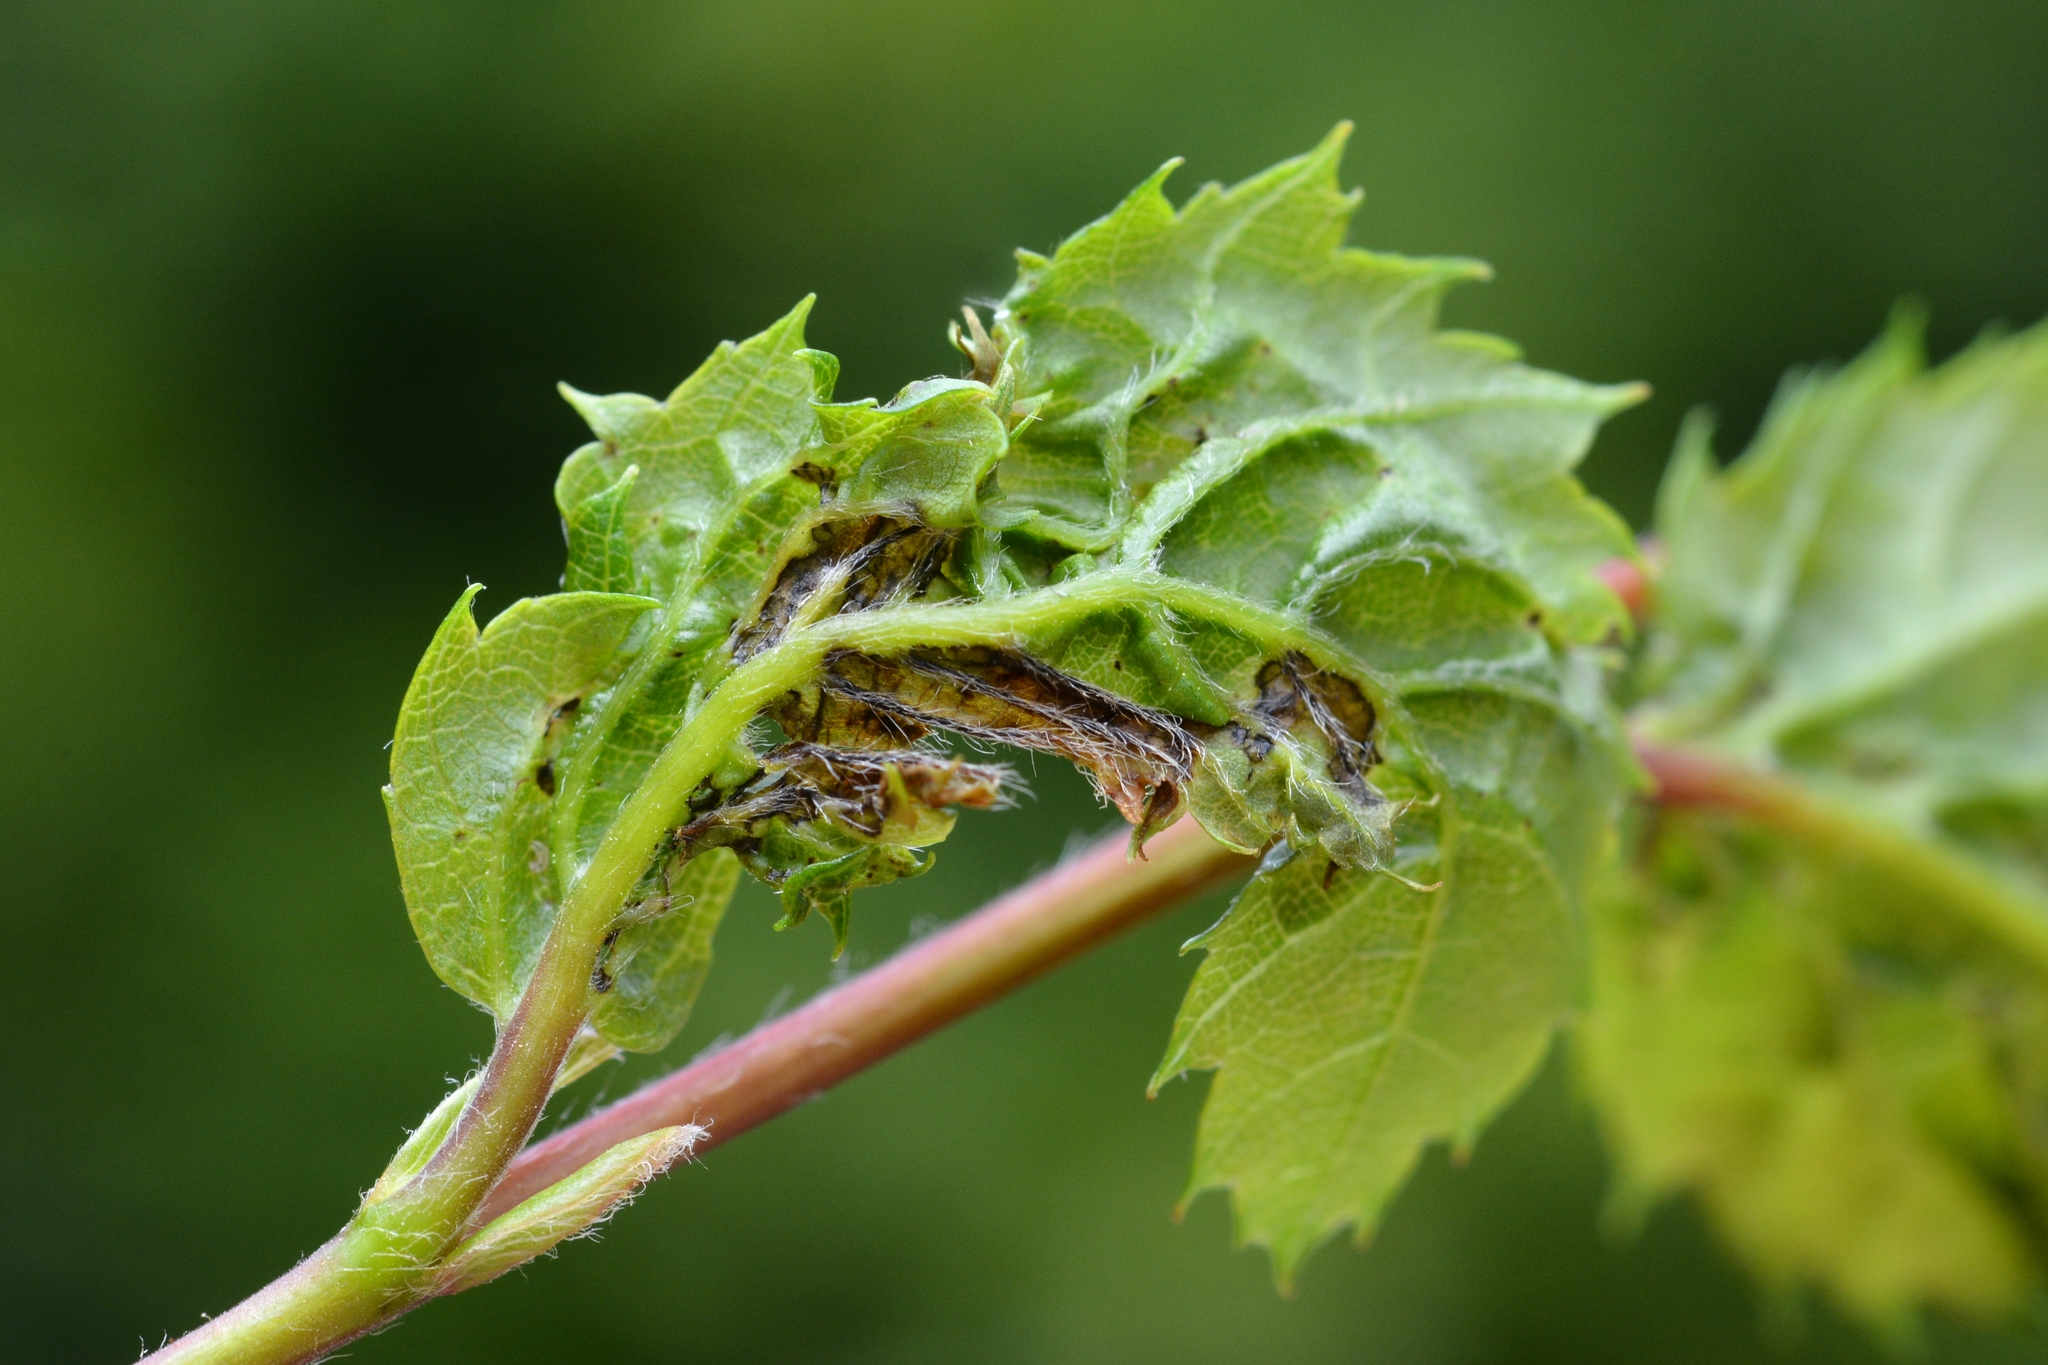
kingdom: Animalia
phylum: Arthropoda
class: Insecta
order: Diptera
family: Cecidomyiidae
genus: Contarinia
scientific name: Contarinia carpini
